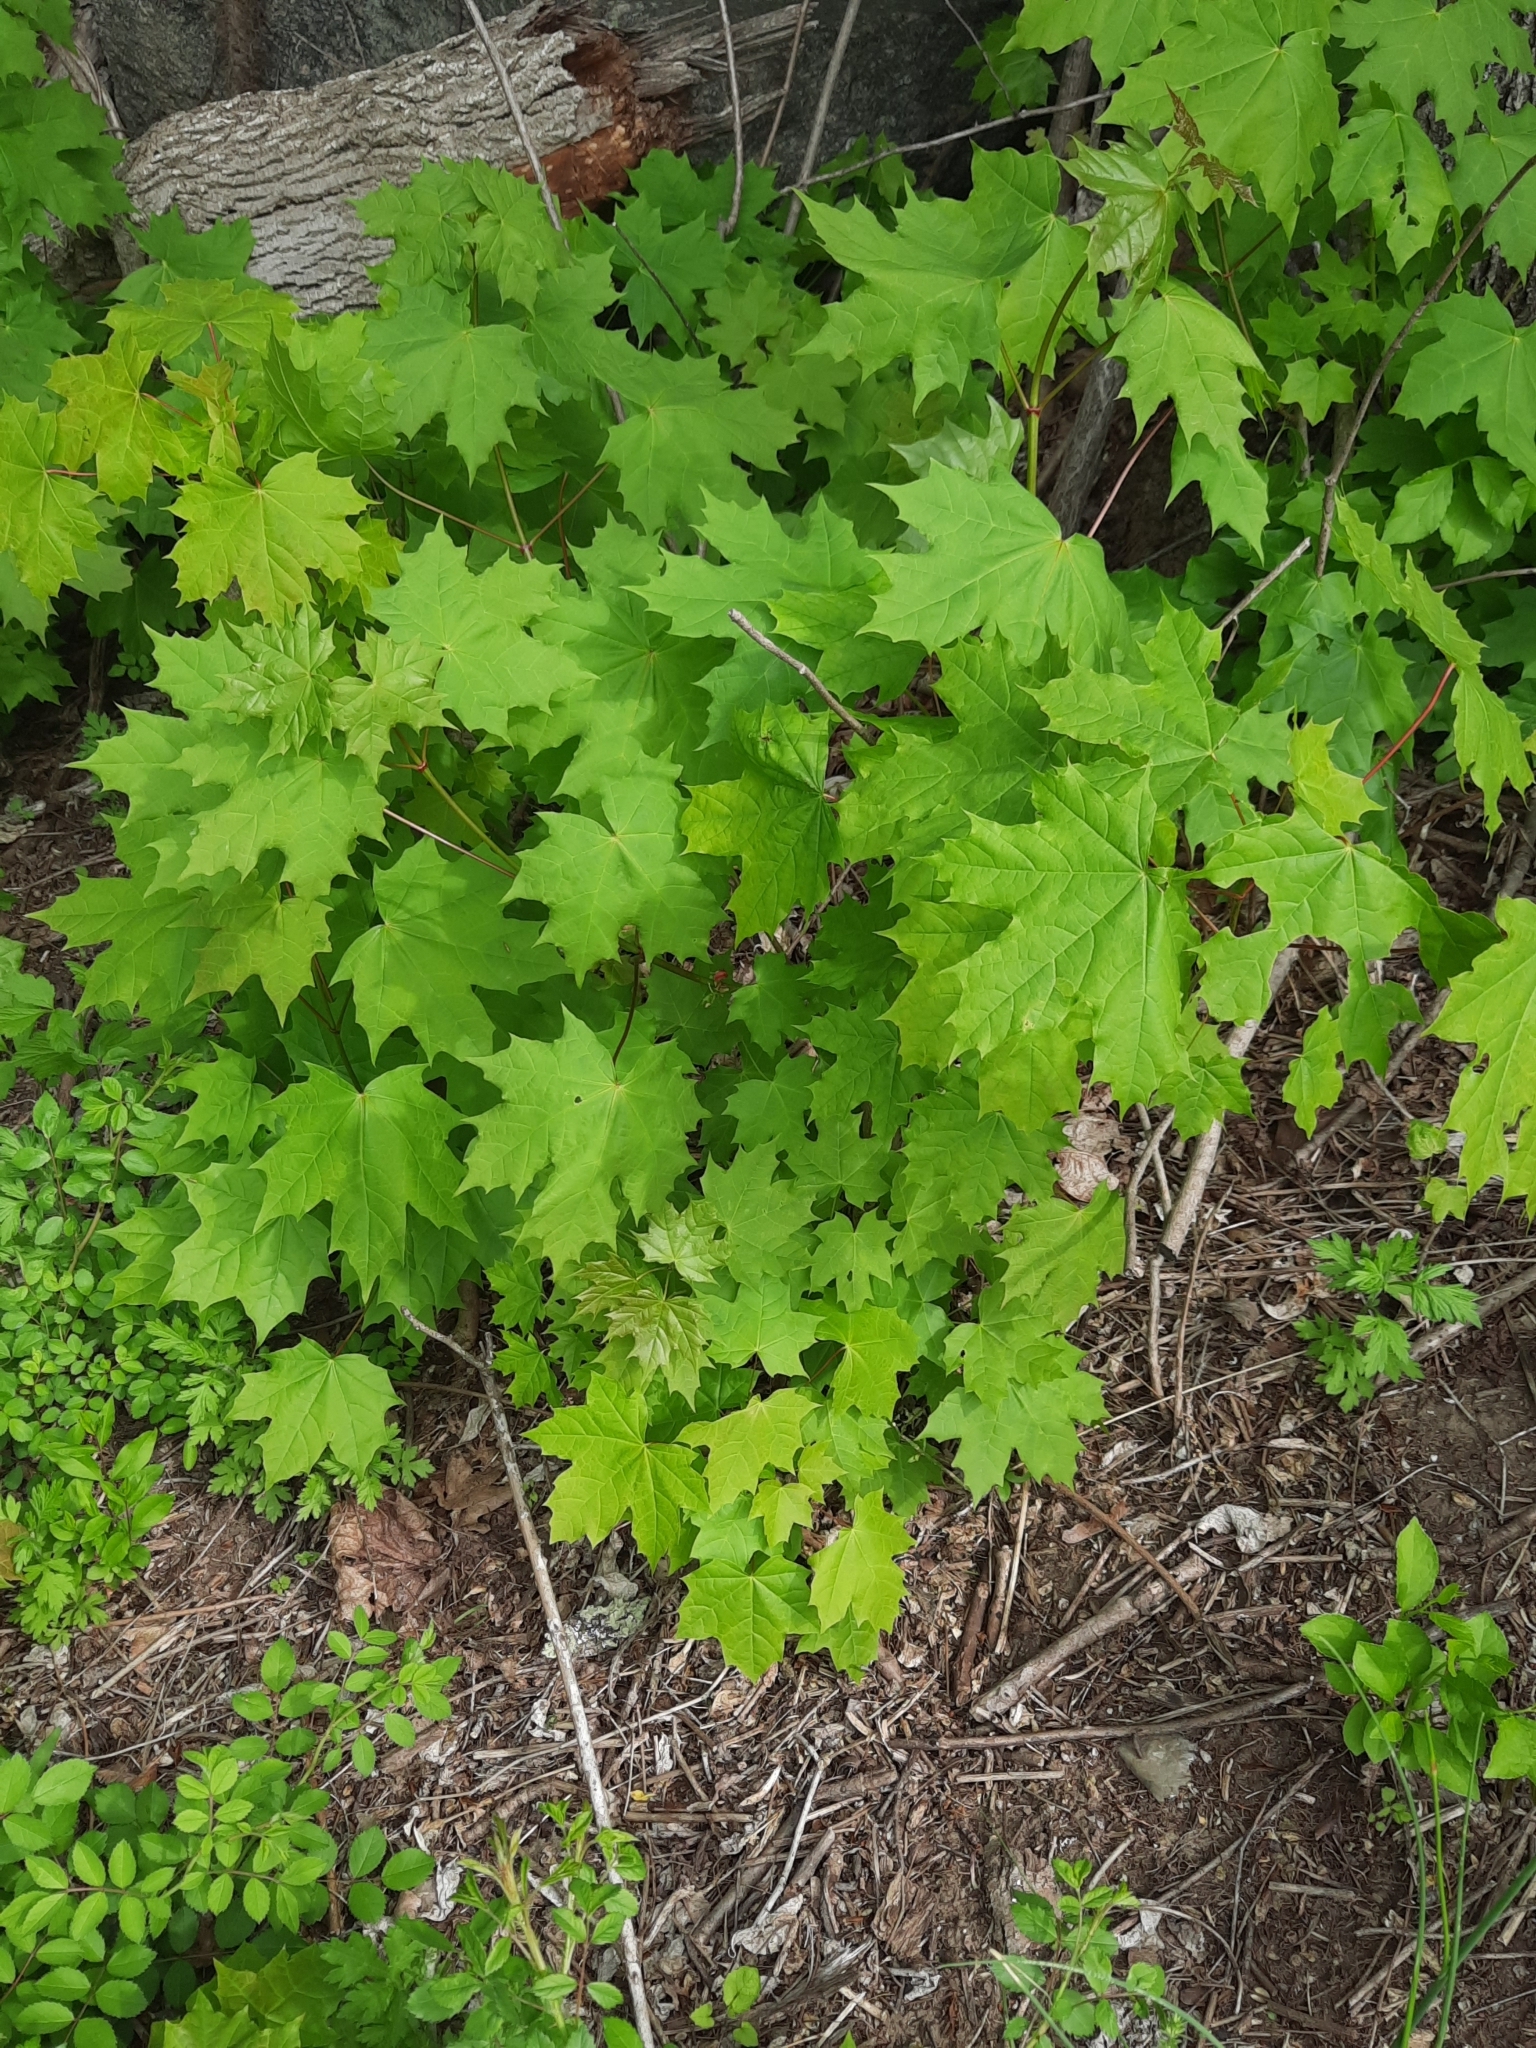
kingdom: Plantae
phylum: Tracheophyta
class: Magnoliopsida
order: Sapindales
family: Sapindaceae
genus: Acer
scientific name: Acer saccharum
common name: Sugar maple
